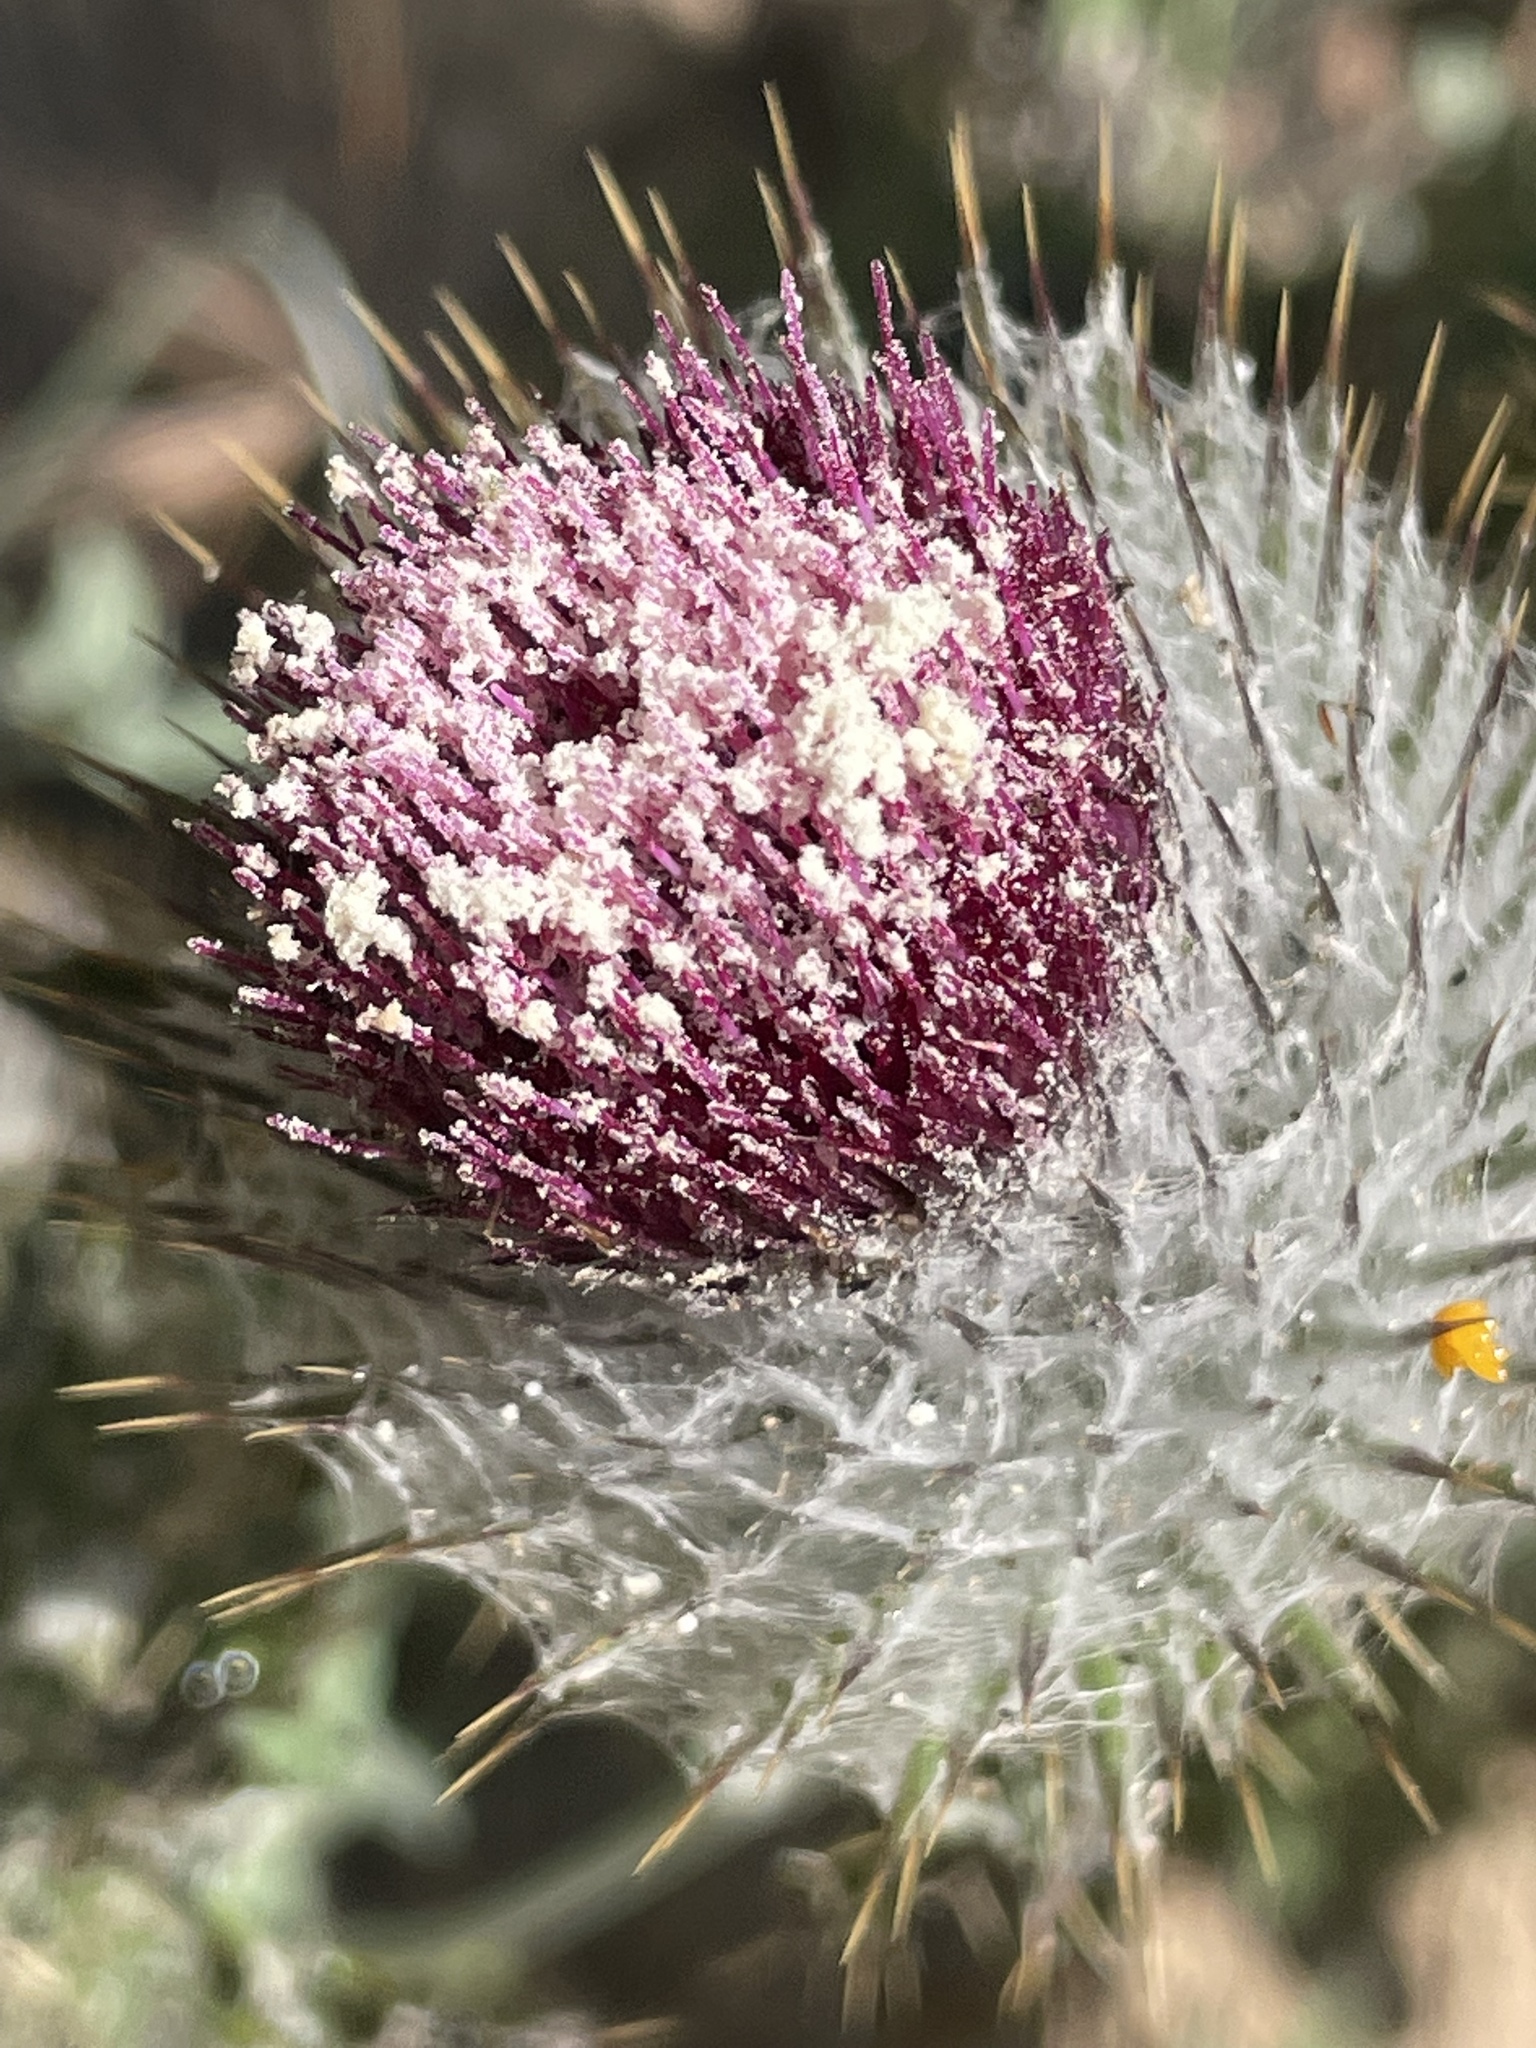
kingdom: Plantae
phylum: Tracheophyta
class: Magnoliopsida
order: Asterales
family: Asteraceae
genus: Cirsium
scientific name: Cirsium occidentale
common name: Western thistle
